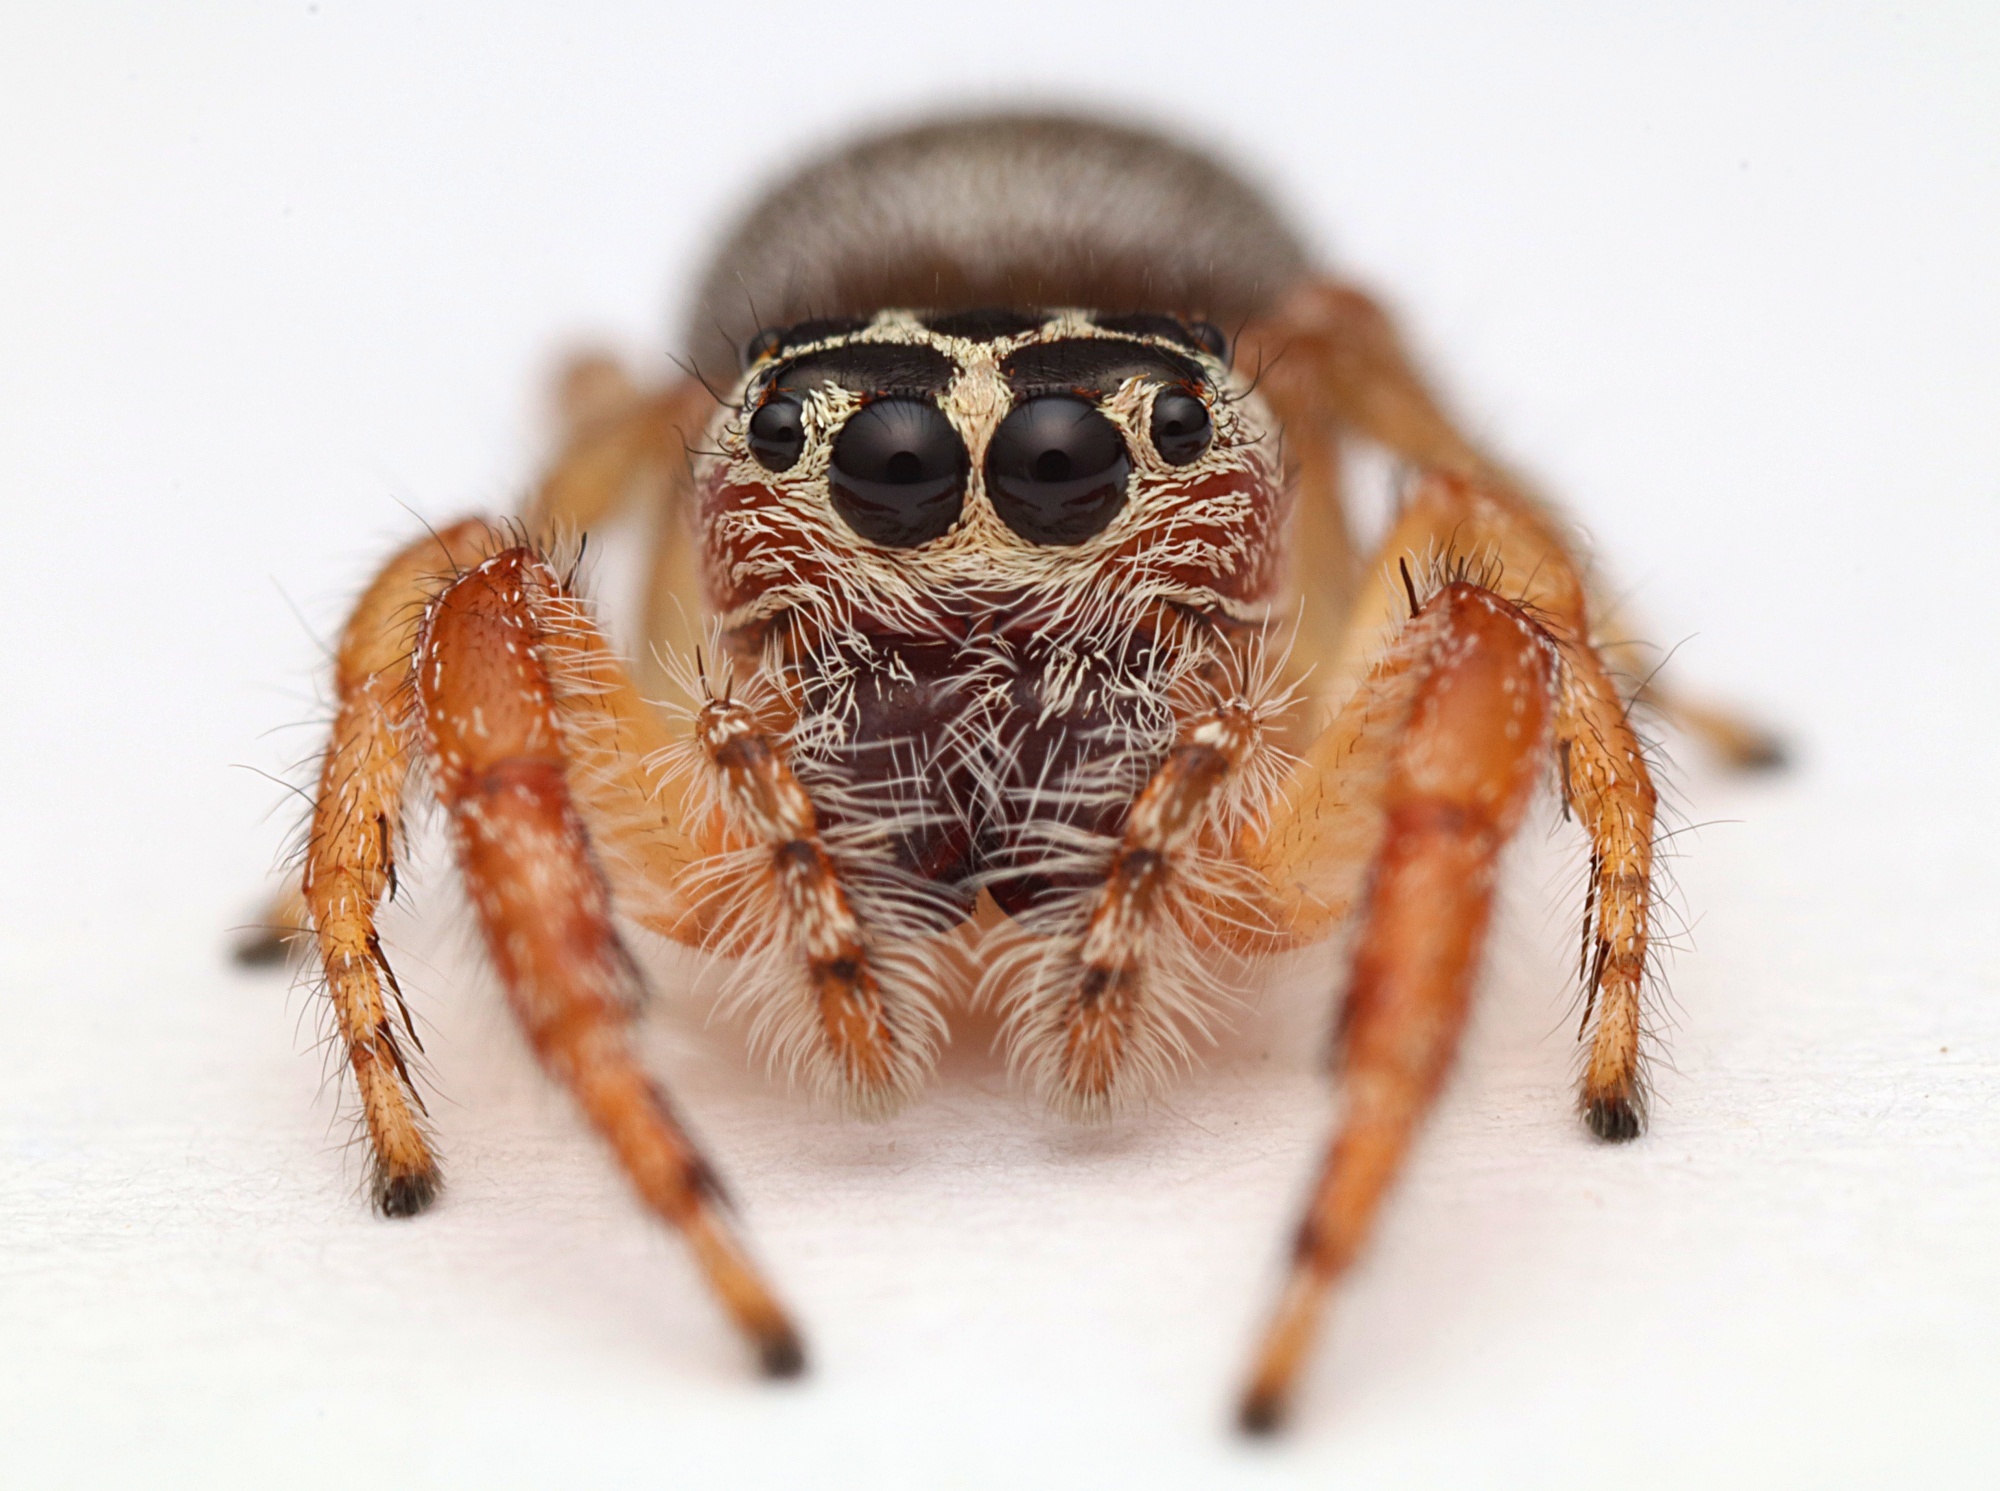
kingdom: Animalia
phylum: Arthropoda
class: Arachnida
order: Araneae
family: Salticidae
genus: Opisthoncus
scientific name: Opisthoncus polyphemus
